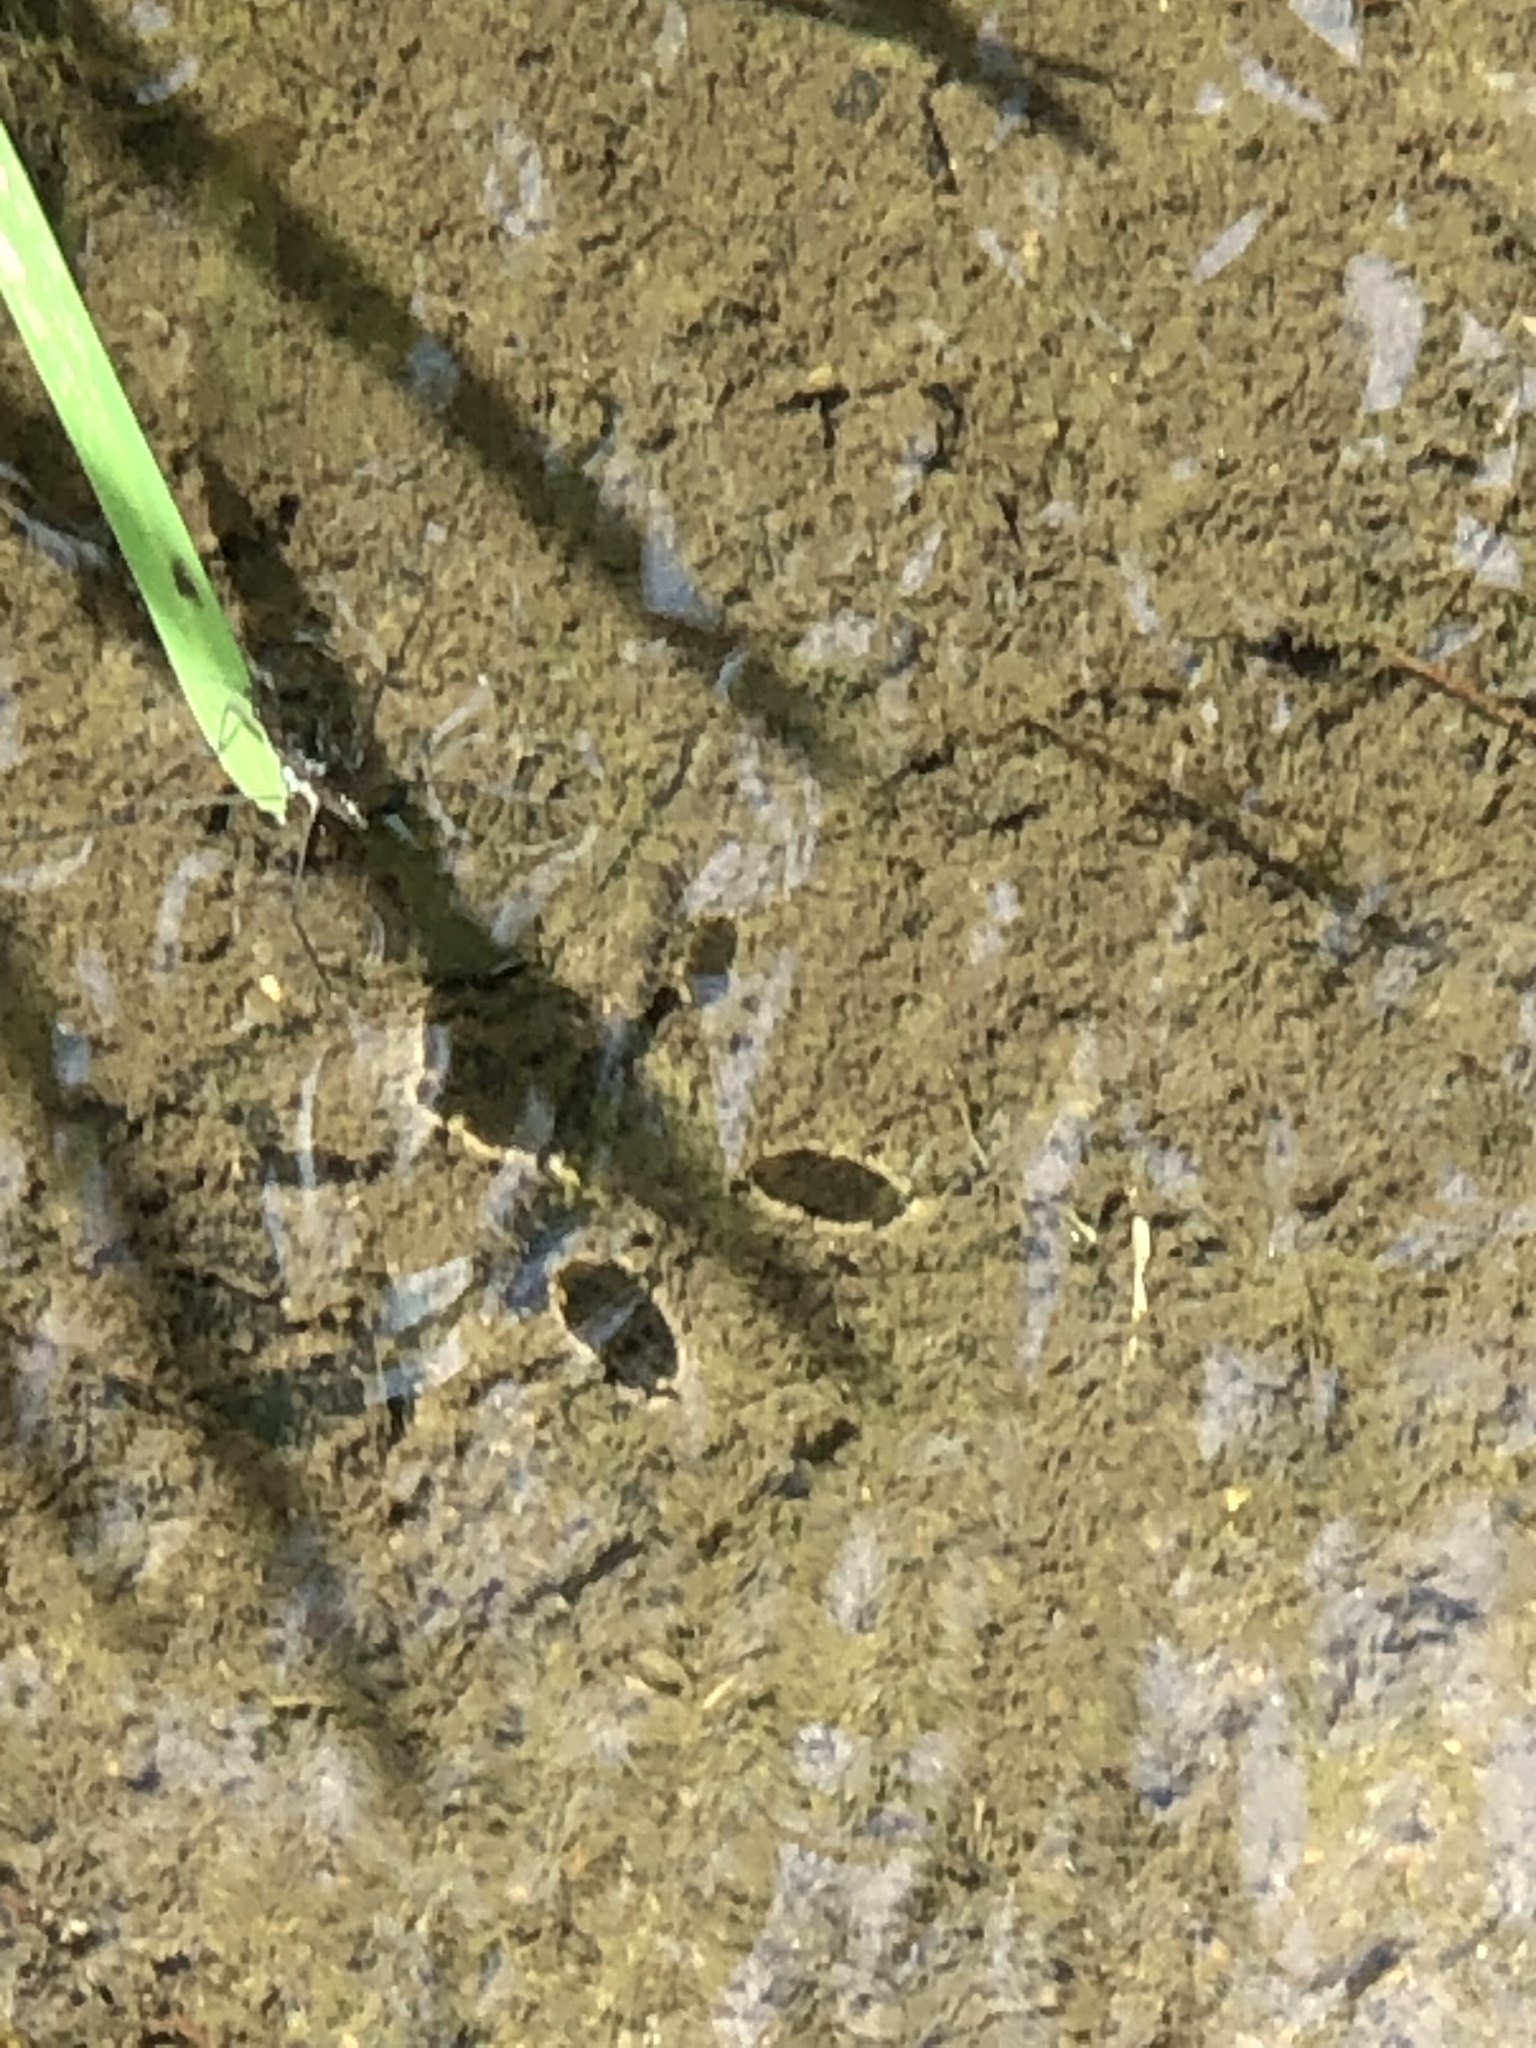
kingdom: Animalia
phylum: Arthropoda
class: Insecta
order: Hemiptera
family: Gerridae
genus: Aquarius
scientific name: Aquarius remigis
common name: Common water strider
